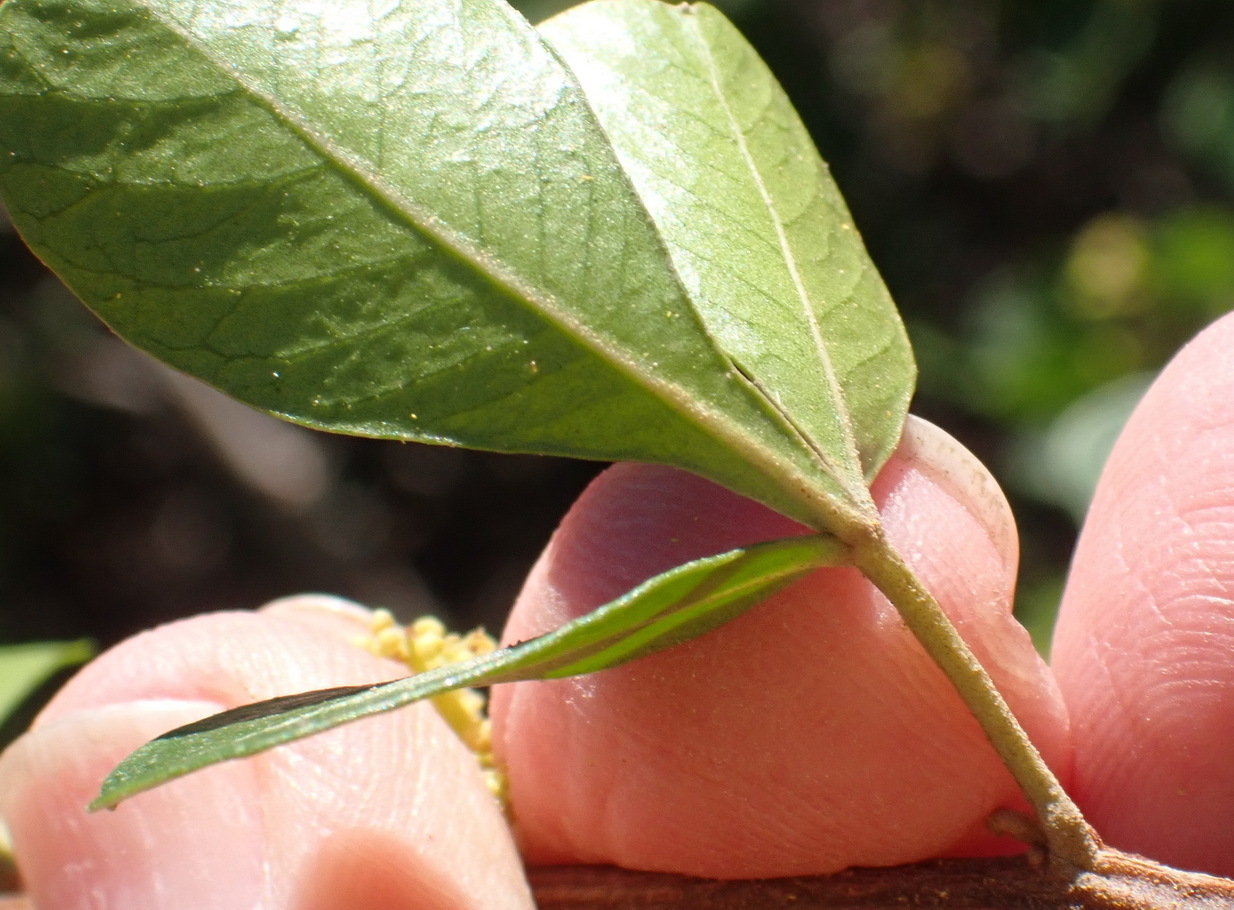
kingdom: Plantae
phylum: Tracheophyta
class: Magnoliopsida
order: Sapindales
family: Anacardiaceae
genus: Searsia
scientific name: Searsia lucida
